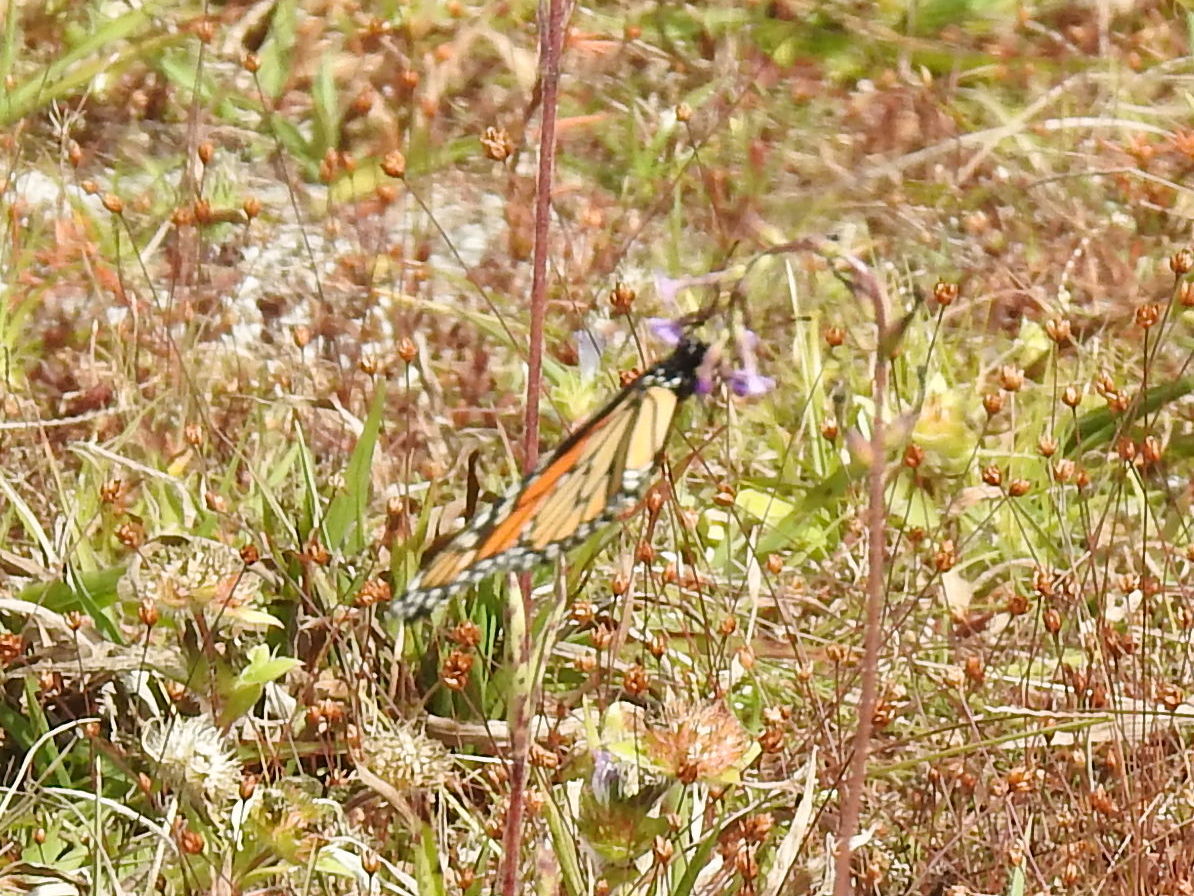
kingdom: Animalia
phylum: Arthropoda
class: Insecta
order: Lepidoptera
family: Nymphalidae
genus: Danaus
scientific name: Danaus plexippus
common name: Monarch
